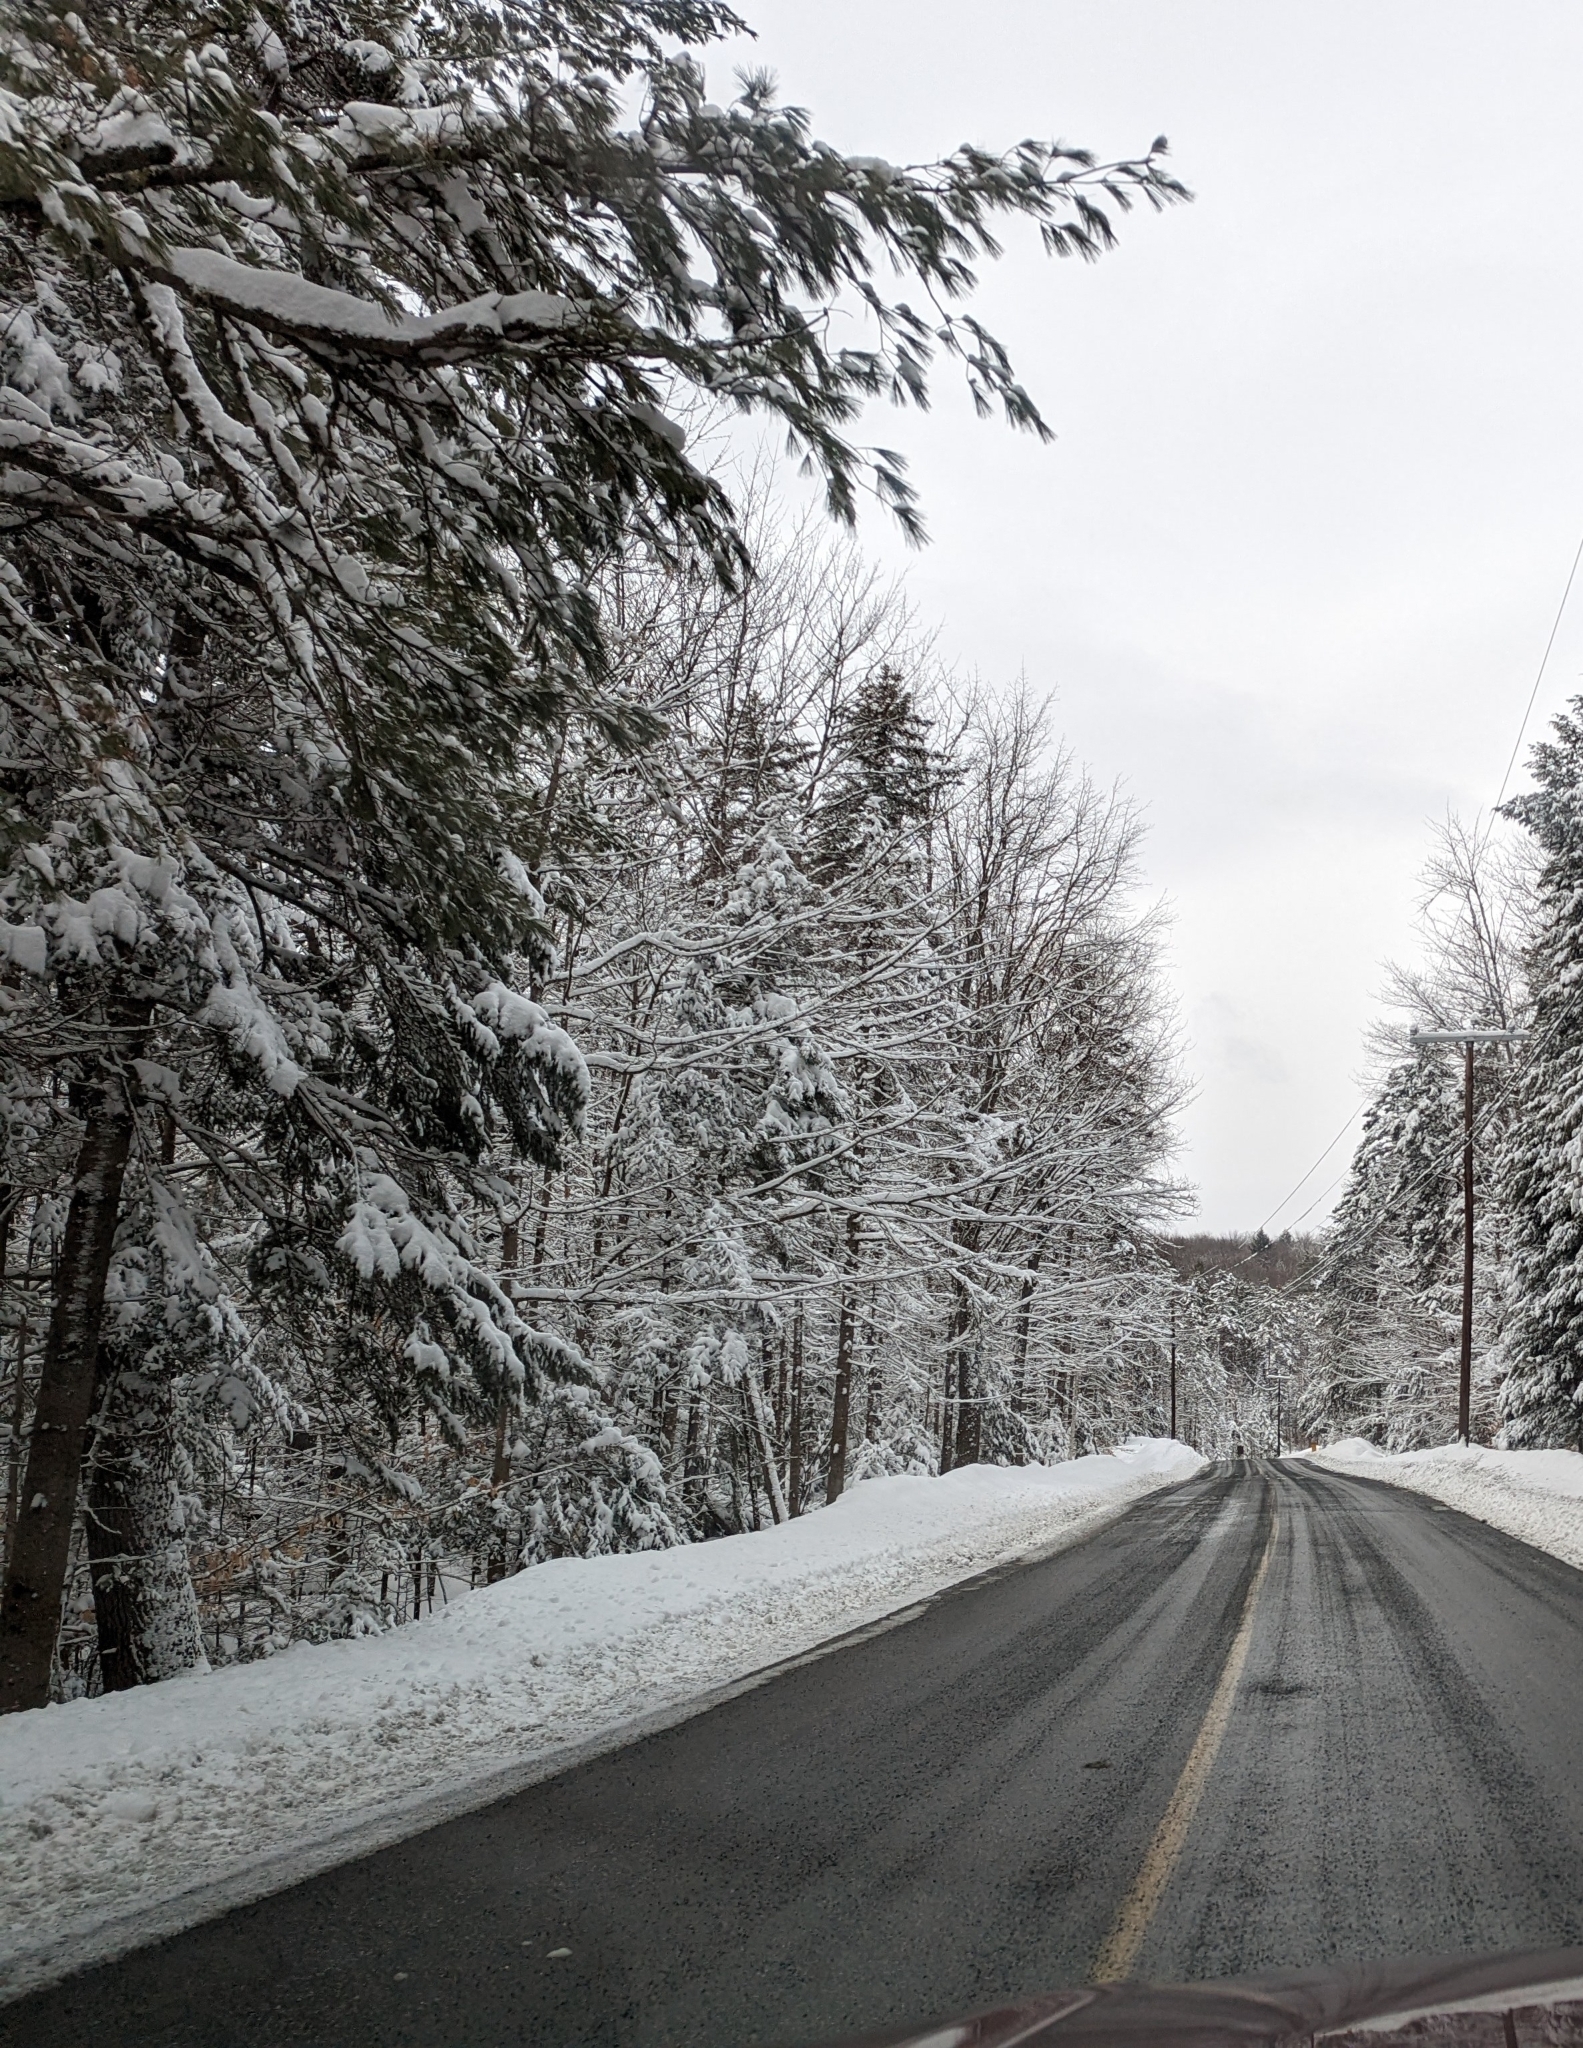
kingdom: Plantae
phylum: Tracheophyta
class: Pinopsida
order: Pinales
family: Pinaceae
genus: Pinus
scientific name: Pinus strobus
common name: Weymouth pine
